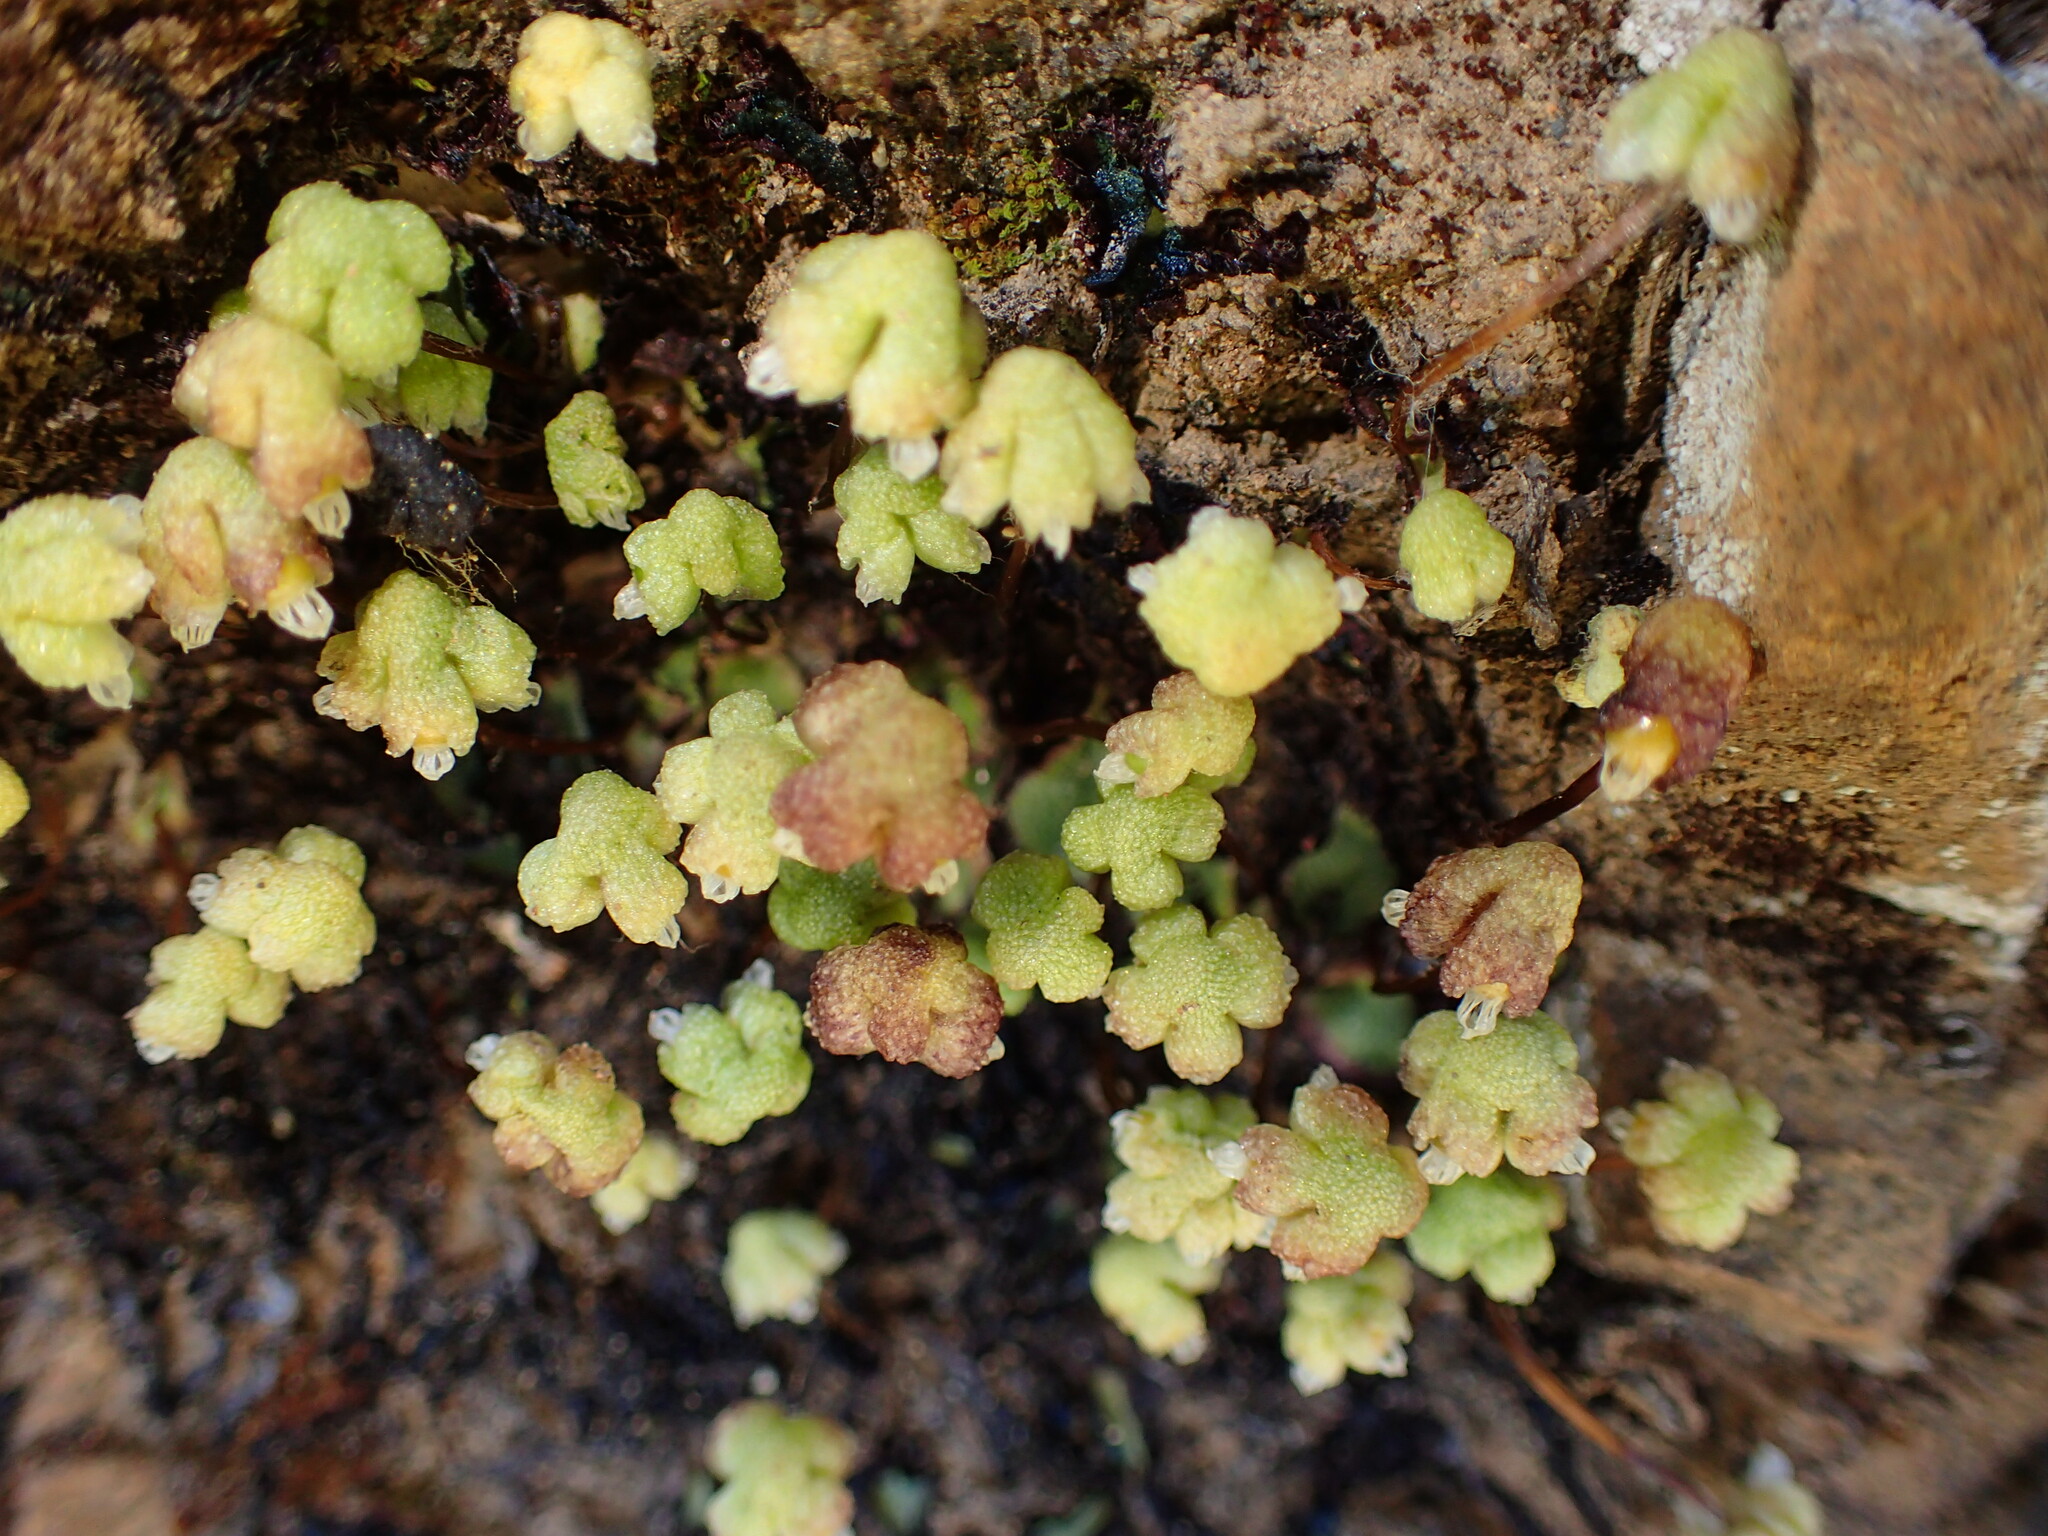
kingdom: Plantae
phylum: Marchantiophyta
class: Marchantiopsida
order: Marchantiales
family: Aytoniaceae
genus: Asterella
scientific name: Asterella californica
